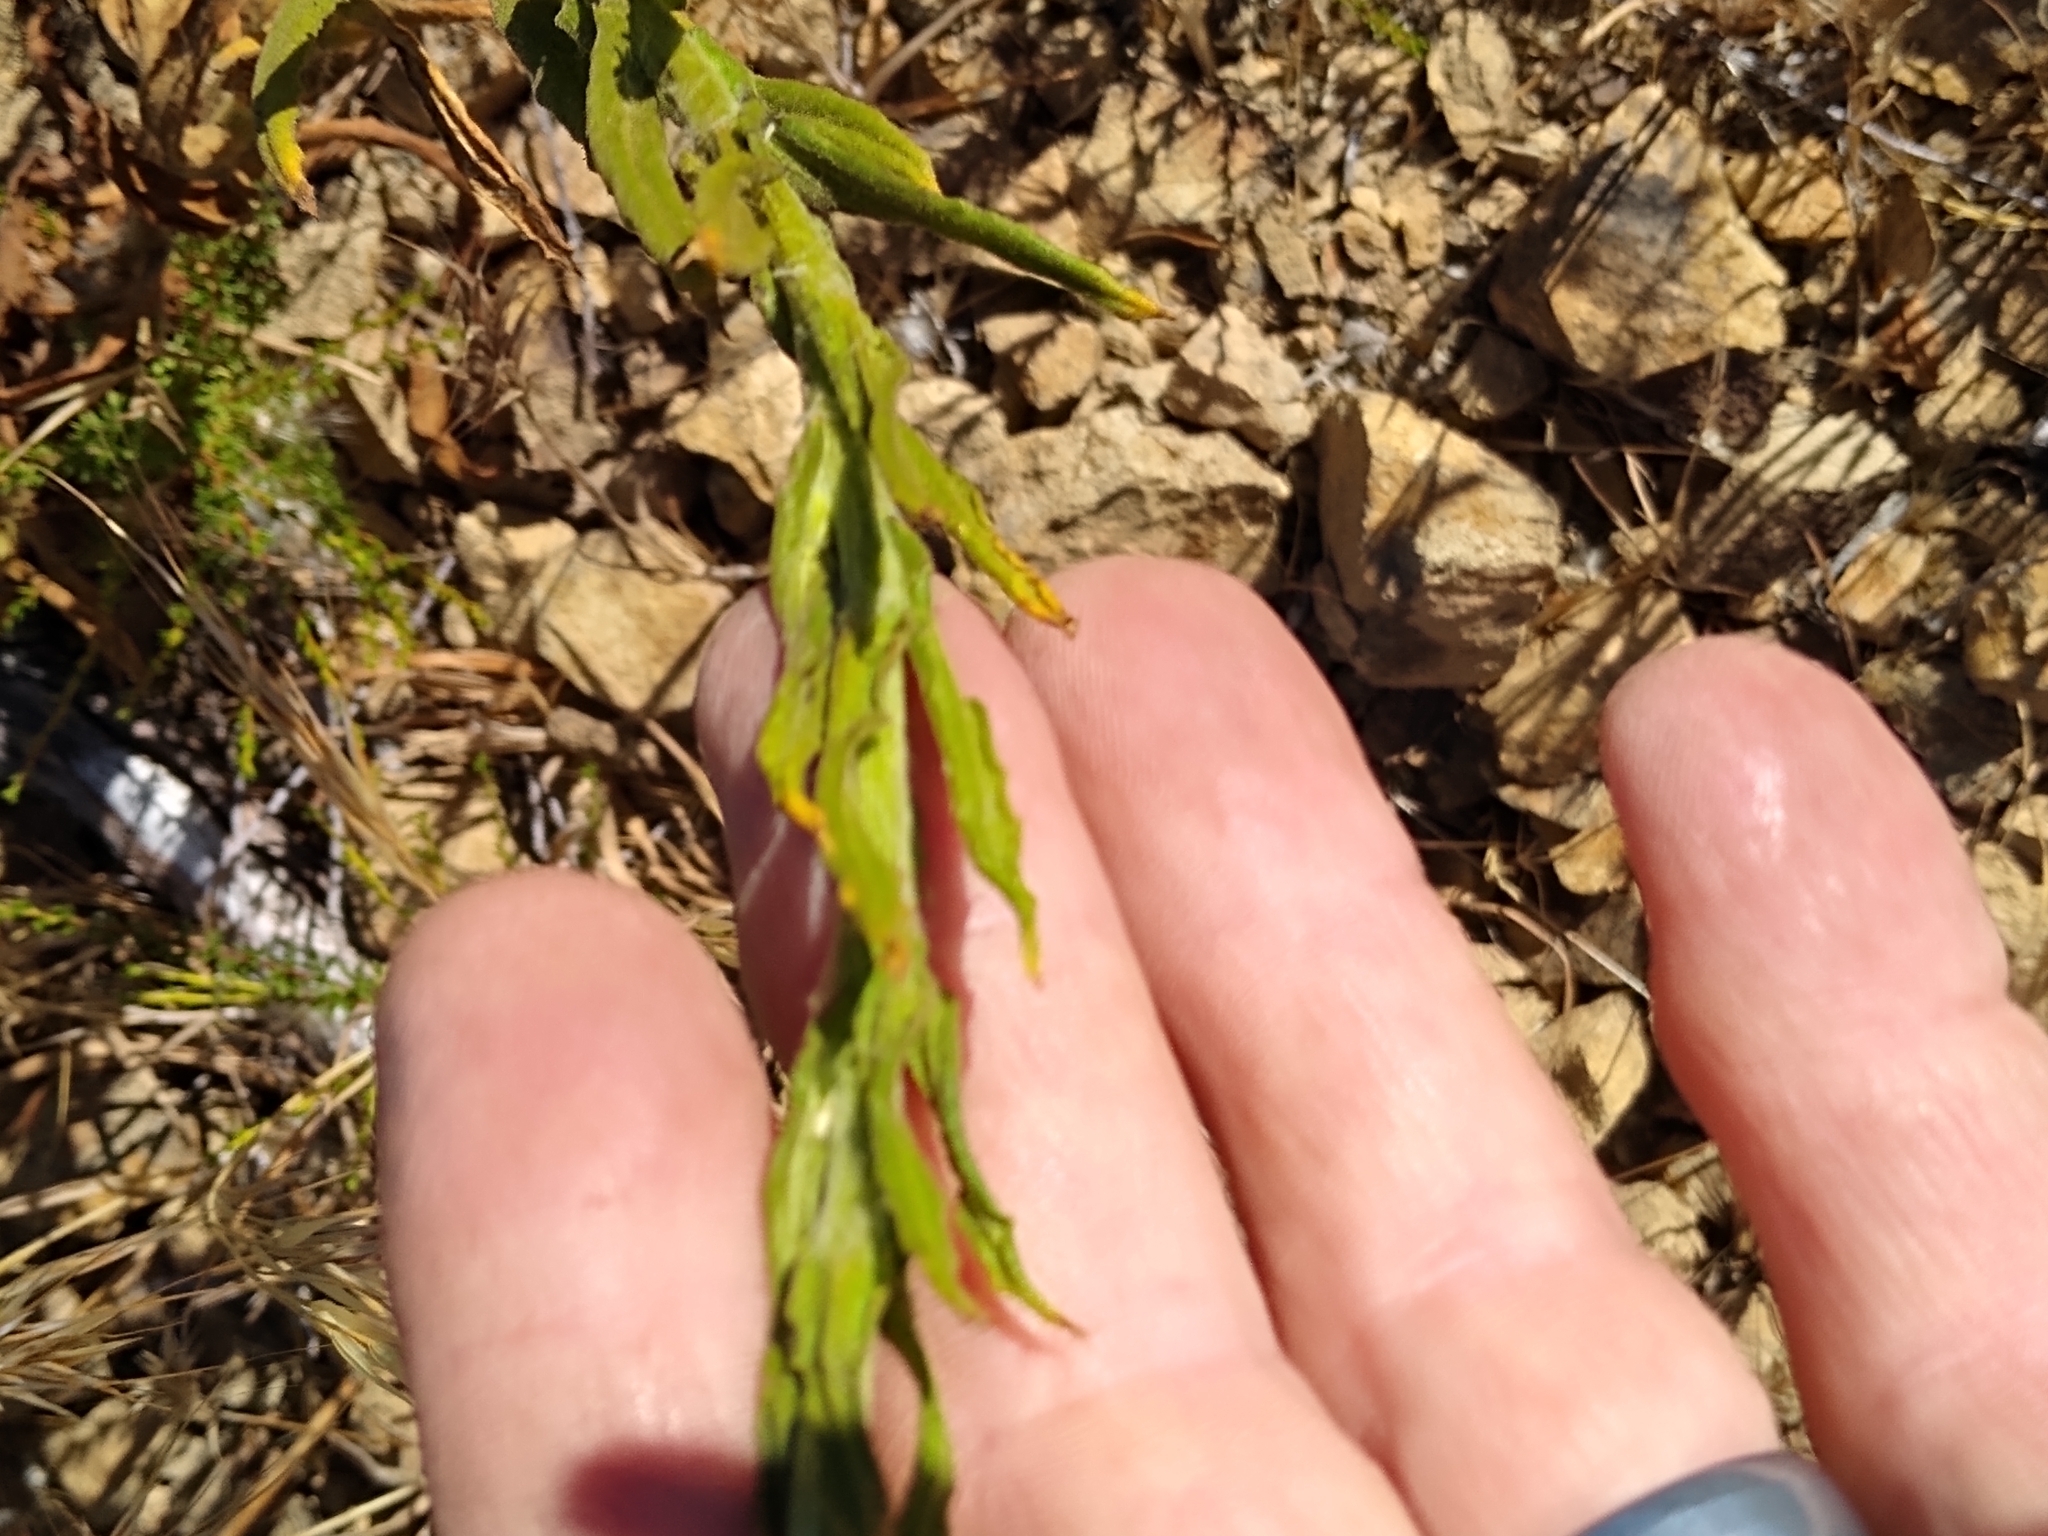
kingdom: Plantae
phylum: Tracheophyta
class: Magnoliopsida
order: Asterales
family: Asteraceae
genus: Pseudognaphalium
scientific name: Pseudognaphalium californicum
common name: California rabbit-tobacco
